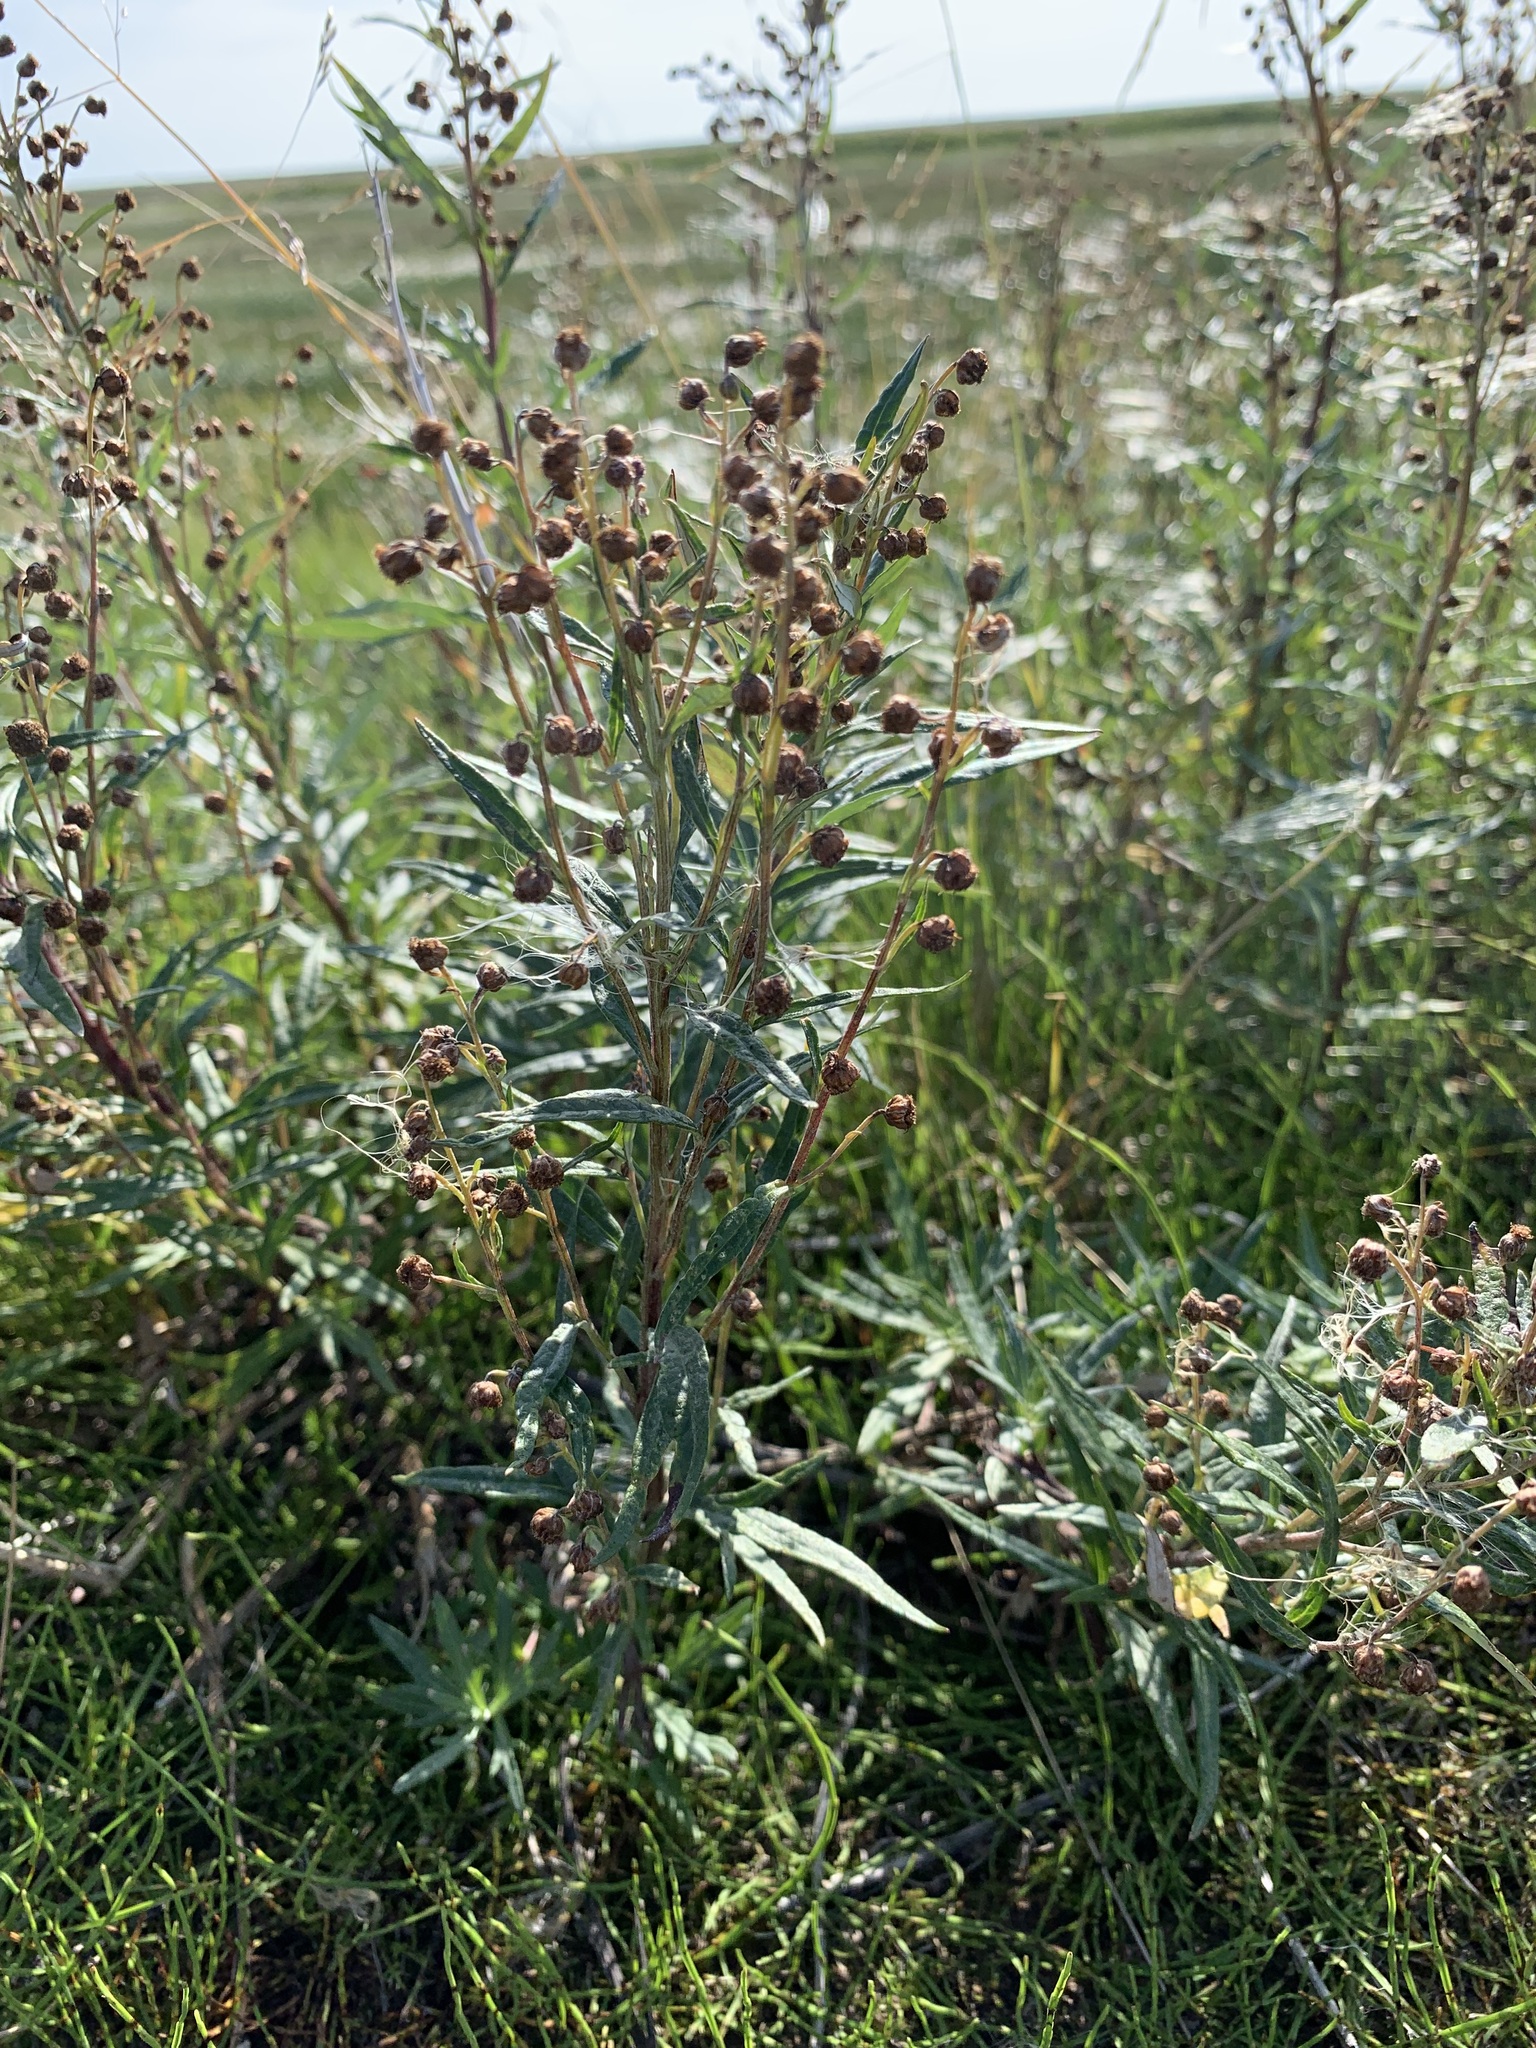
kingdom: Plantae
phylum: Tracheophyta
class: Magnoliopsida
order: Asterales
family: Asteraceae
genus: Artemisia
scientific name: Artemisia tilesii
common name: Aleutian mugwort
